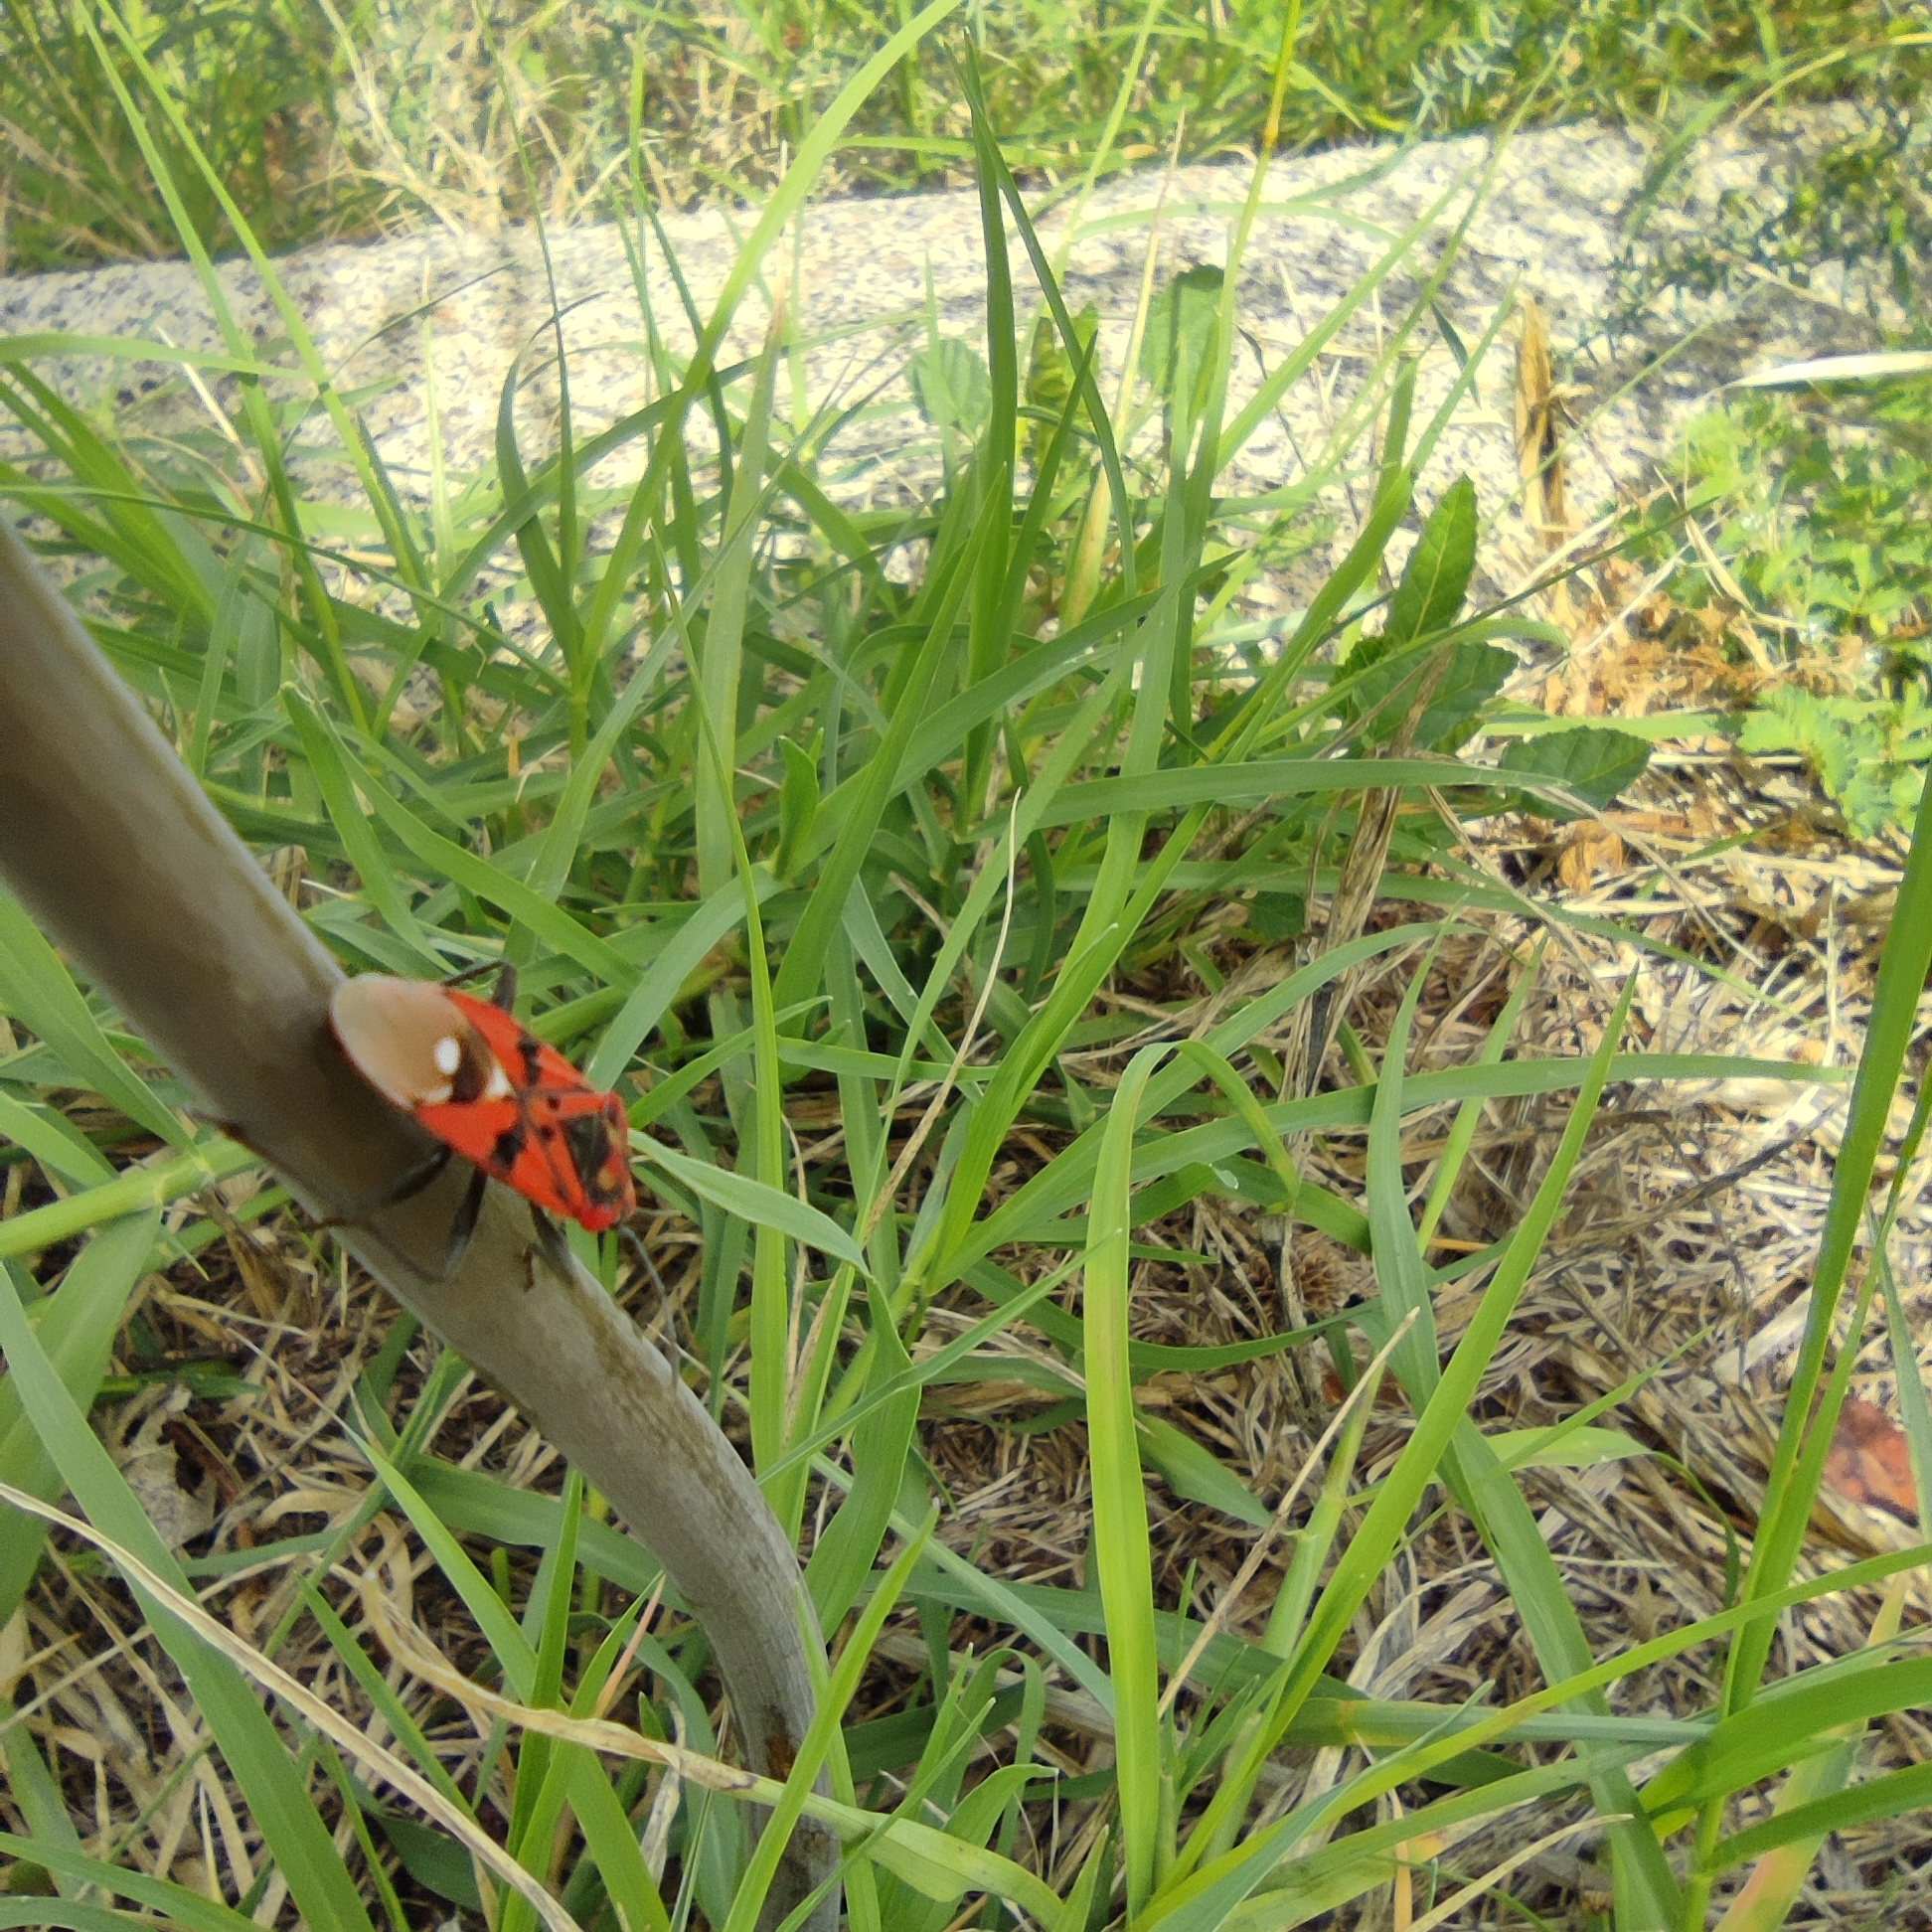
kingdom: Animalia
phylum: Arthropoda
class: Insecta
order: Hemiptera
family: Lygaeidae
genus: Spilostethus
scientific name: Spilostethus pandurus
